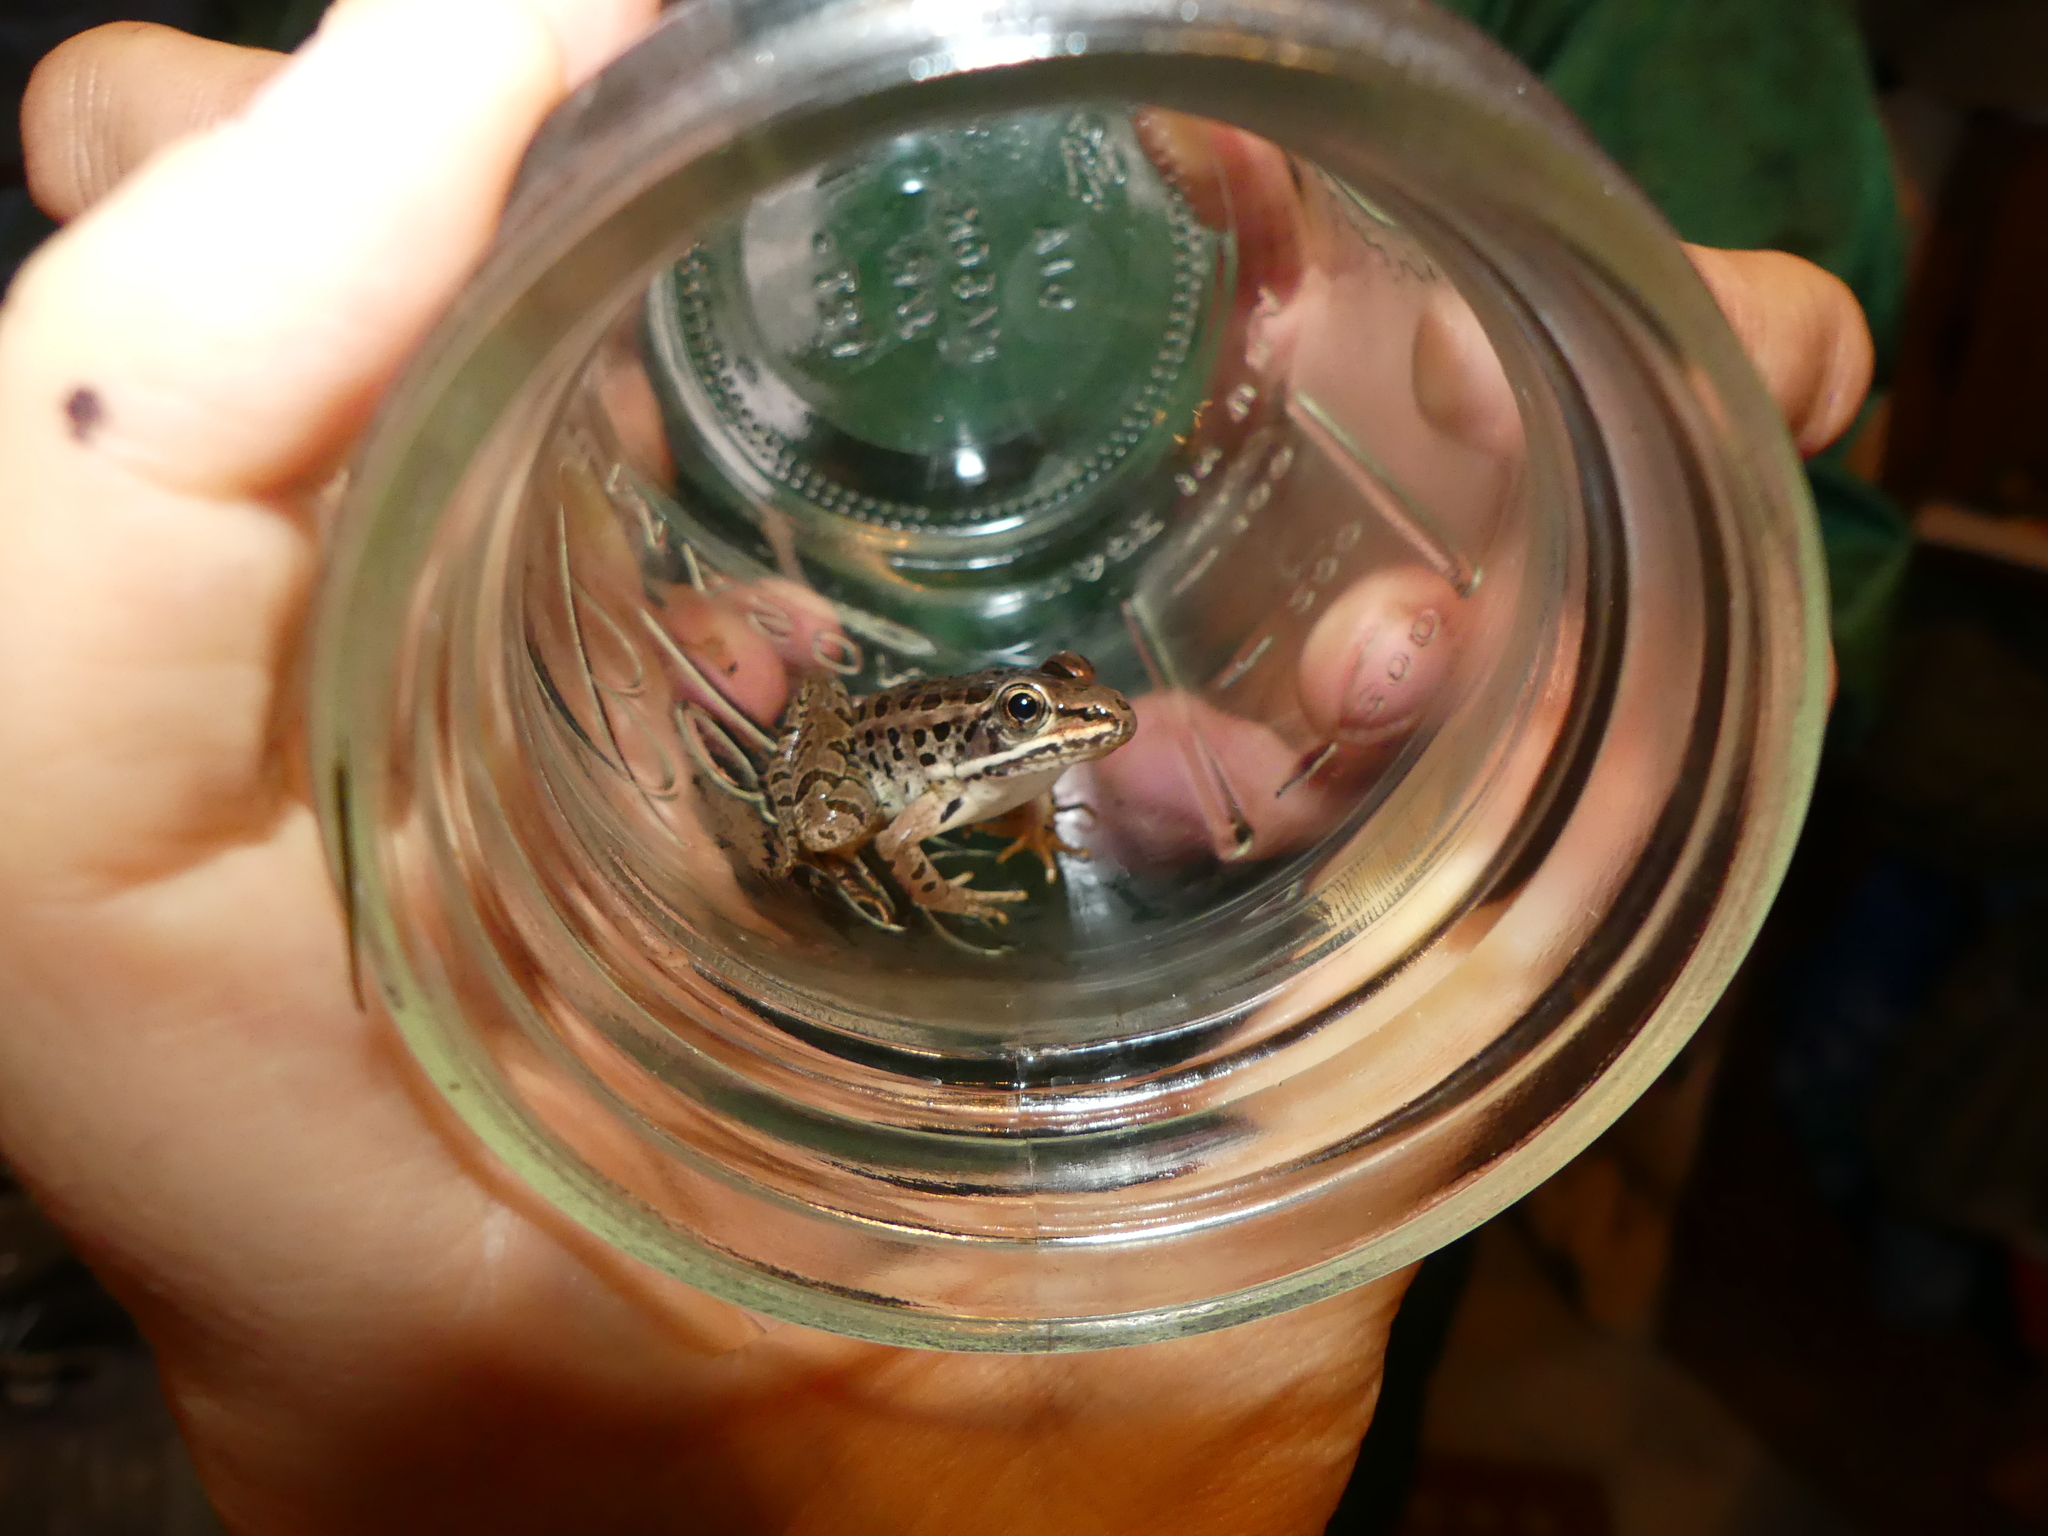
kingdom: Animalia
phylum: Chordata
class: Amphibia
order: Anura
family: Ranidae
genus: Lithobates
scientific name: Lithobates palustris
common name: Pickerel frog
